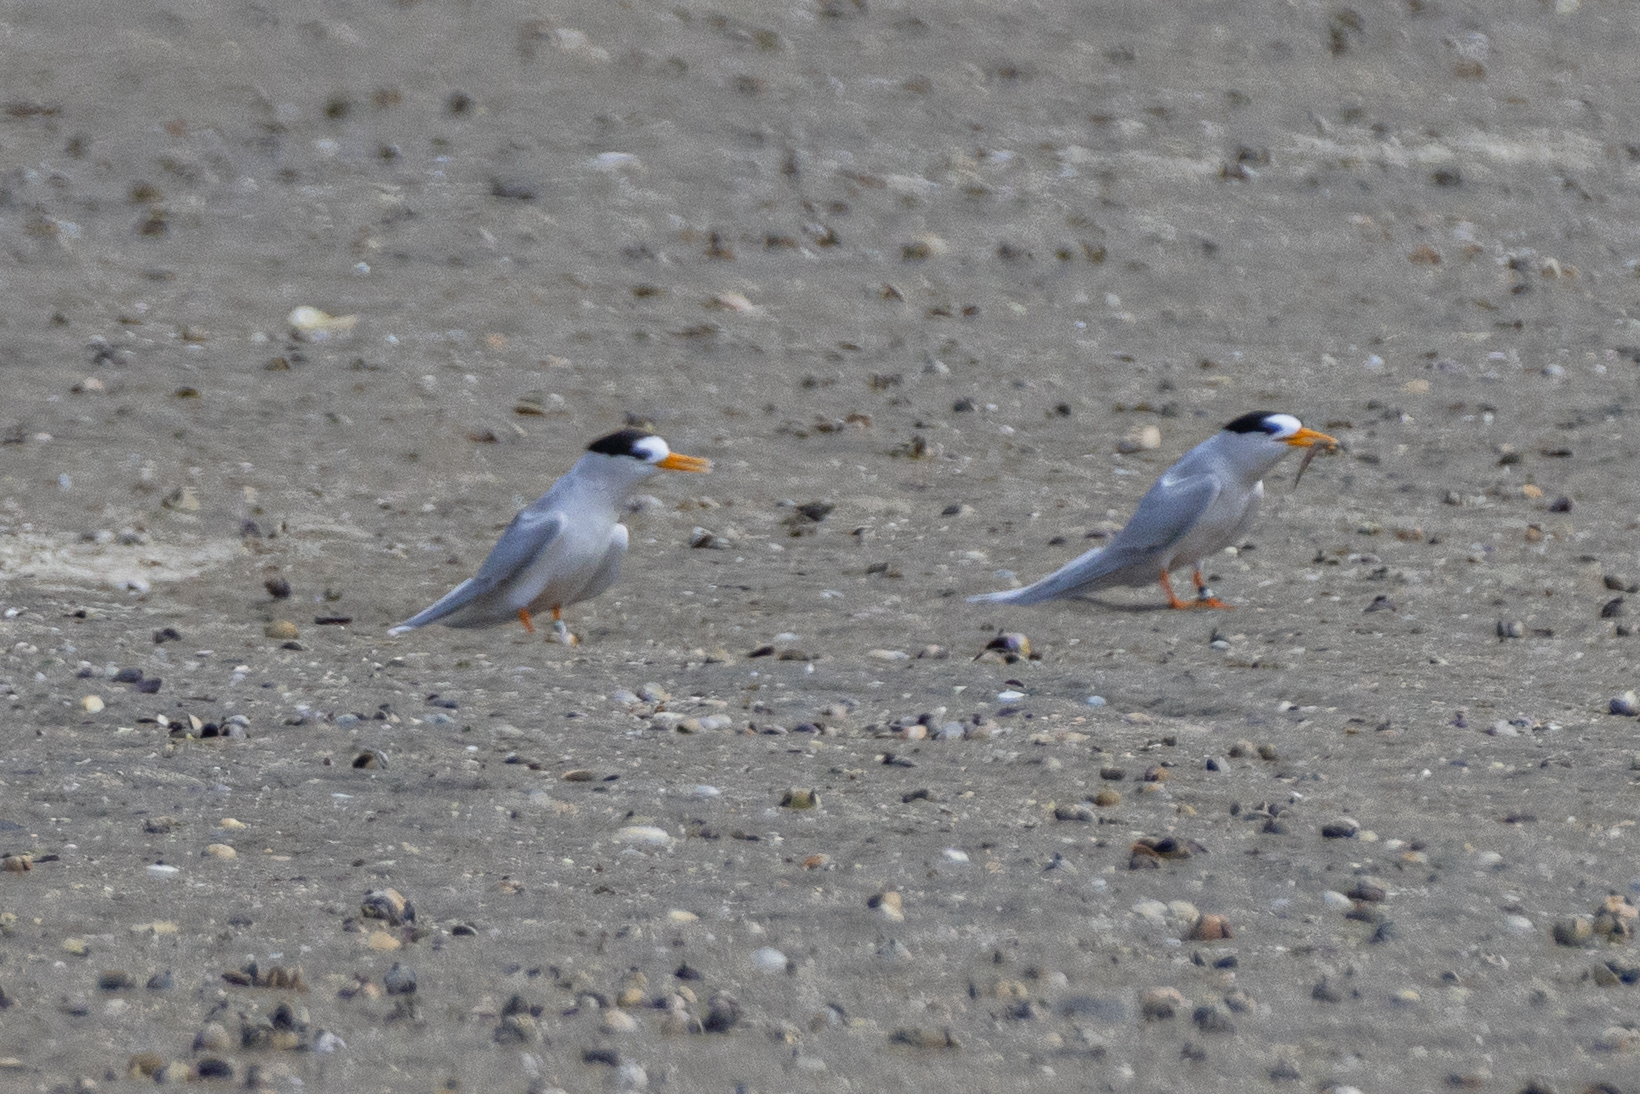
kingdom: Animalia
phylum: Chordata
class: Aves
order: Charadriiformes
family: Laridae
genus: Sternula
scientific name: Sternula nereis
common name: Fairy tern
